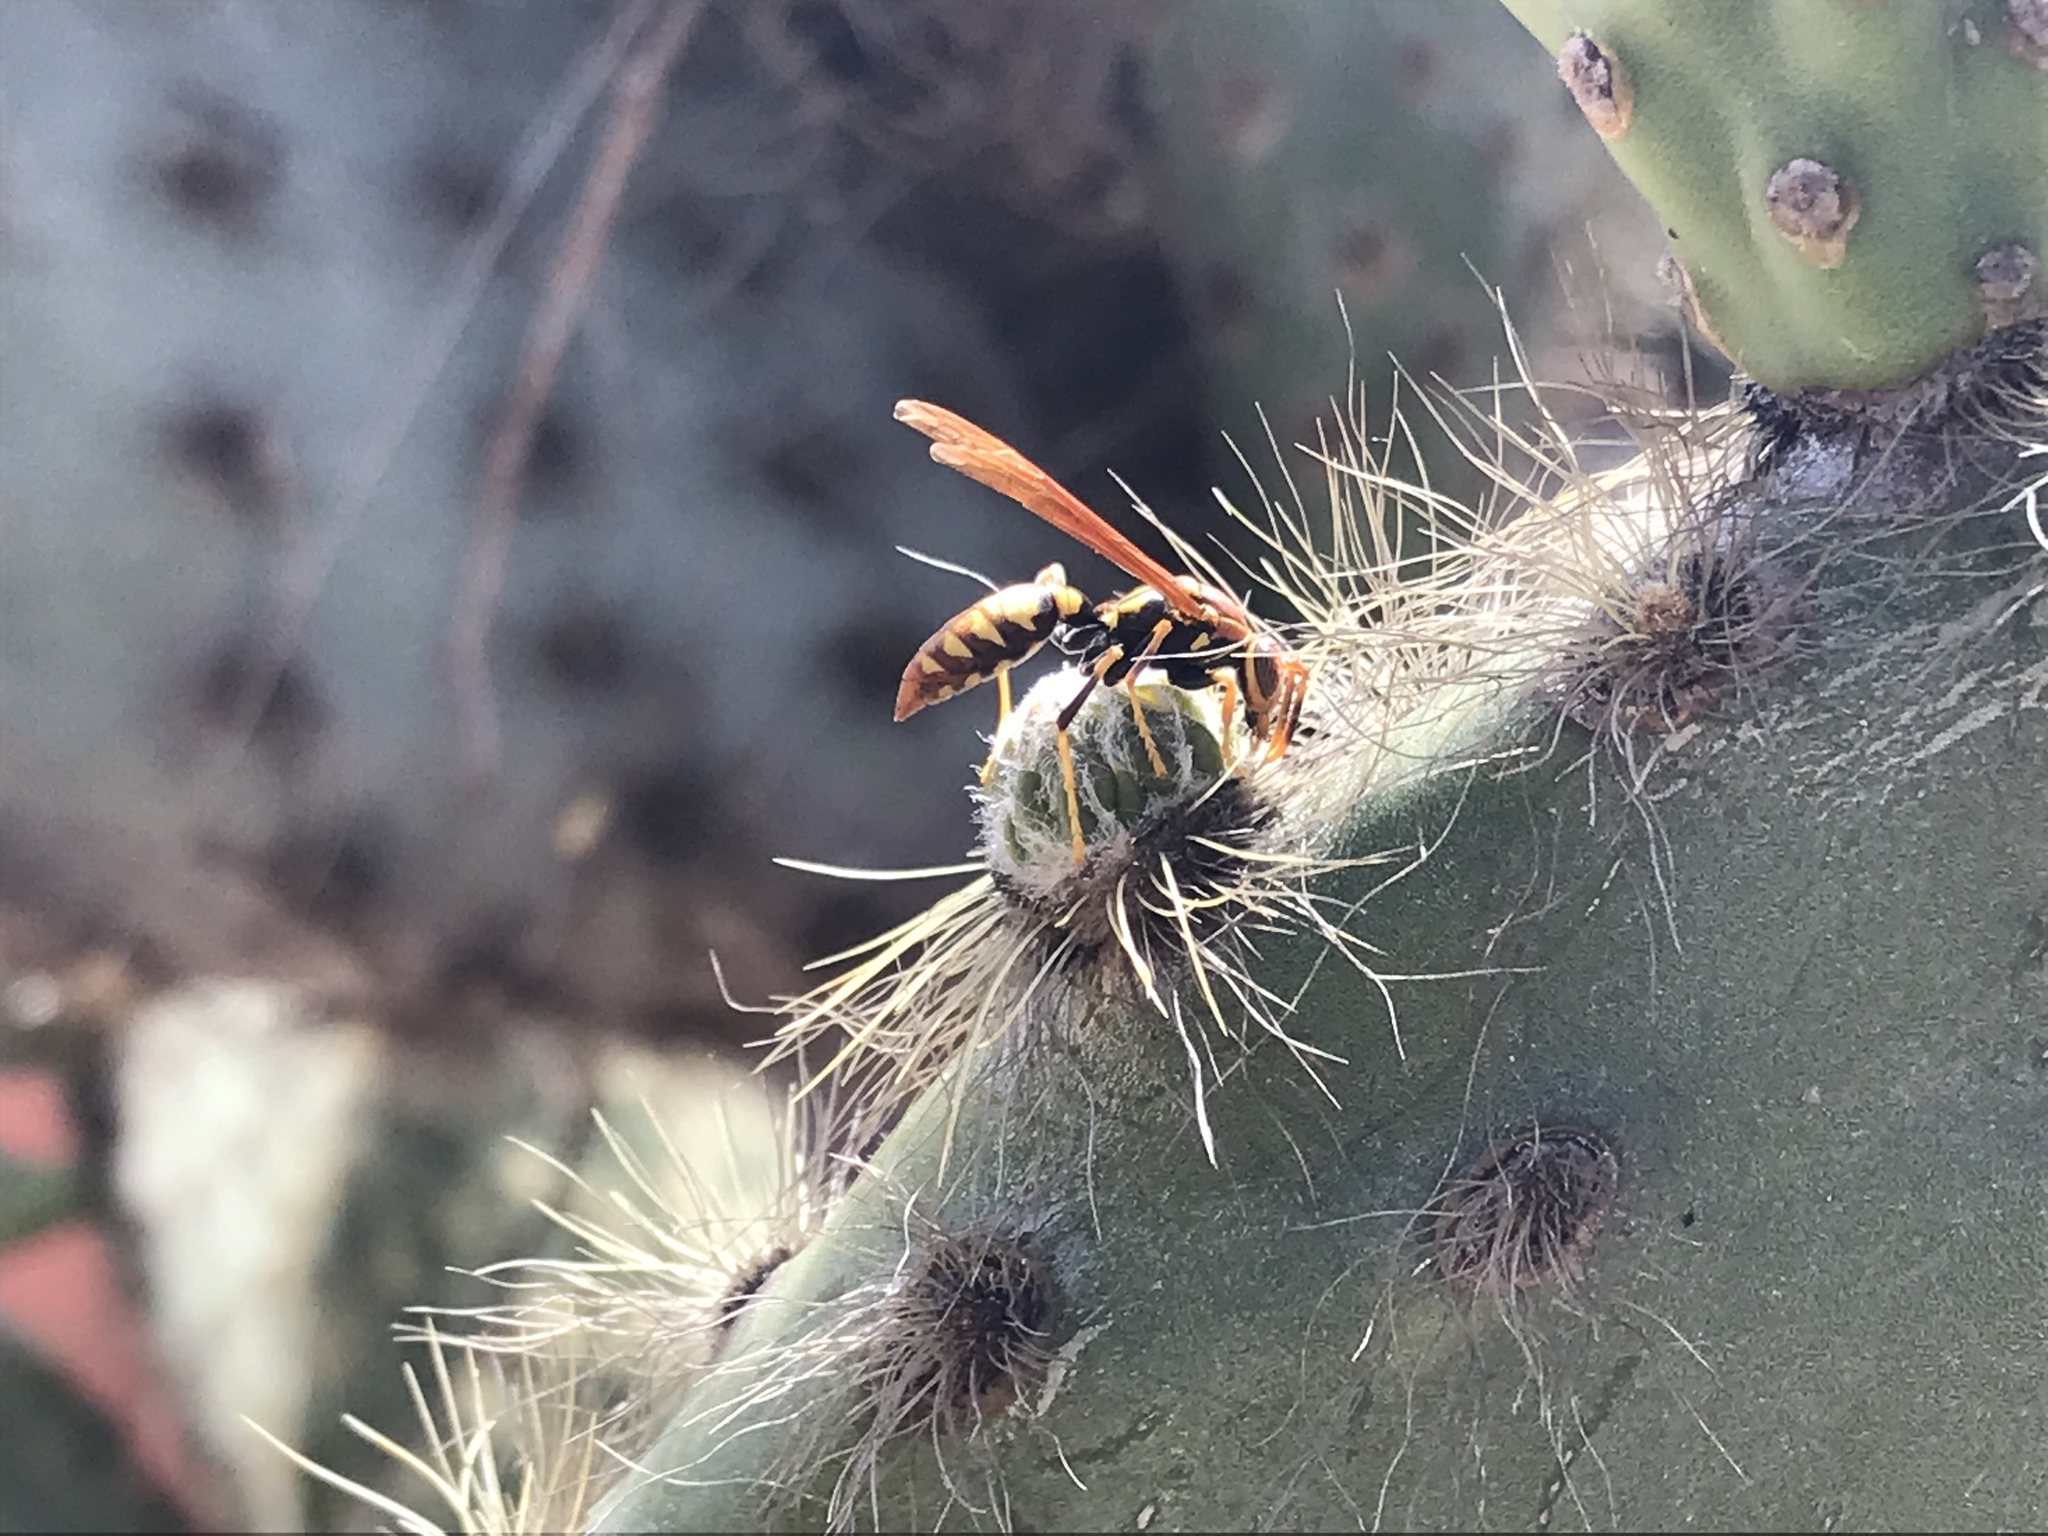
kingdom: Animalia
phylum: Arthropoda
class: Insecta
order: Hymenoptera
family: Eumenidae
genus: Polistes
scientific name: Polistes versicolor
